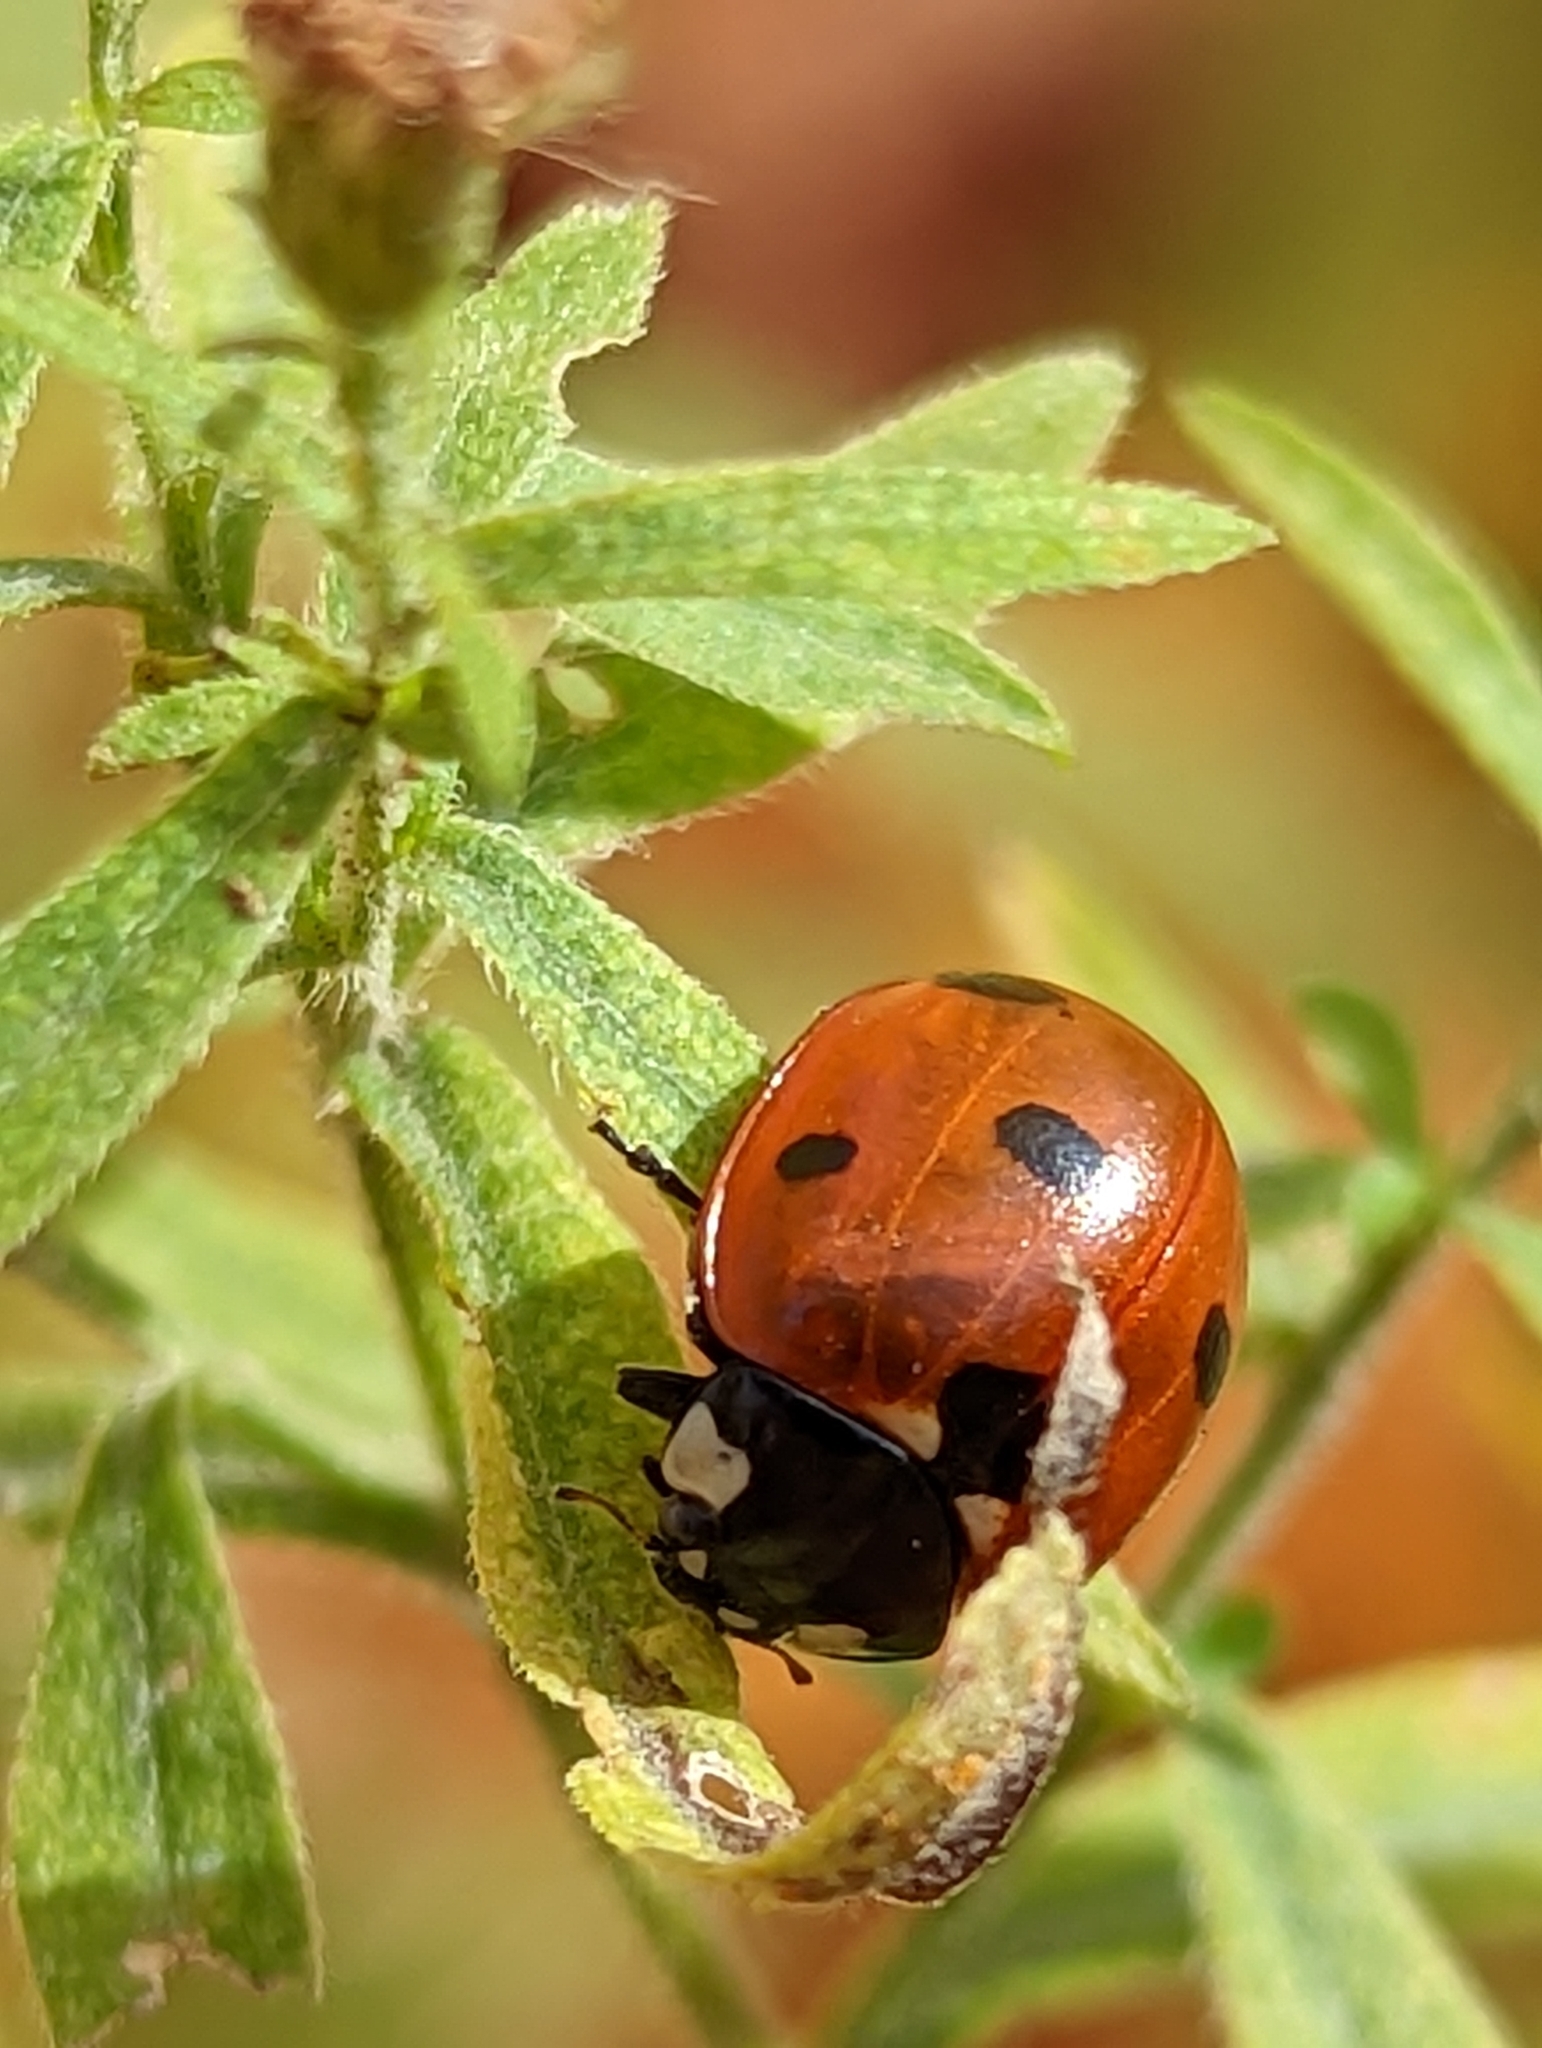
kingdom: Animalia
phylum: Arthropoda
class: Insecta
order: Coleoptera
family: Coccinellidae
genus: Coccinella
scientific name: Coccinella septempunctata
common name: Sevenspotted lady beetle
